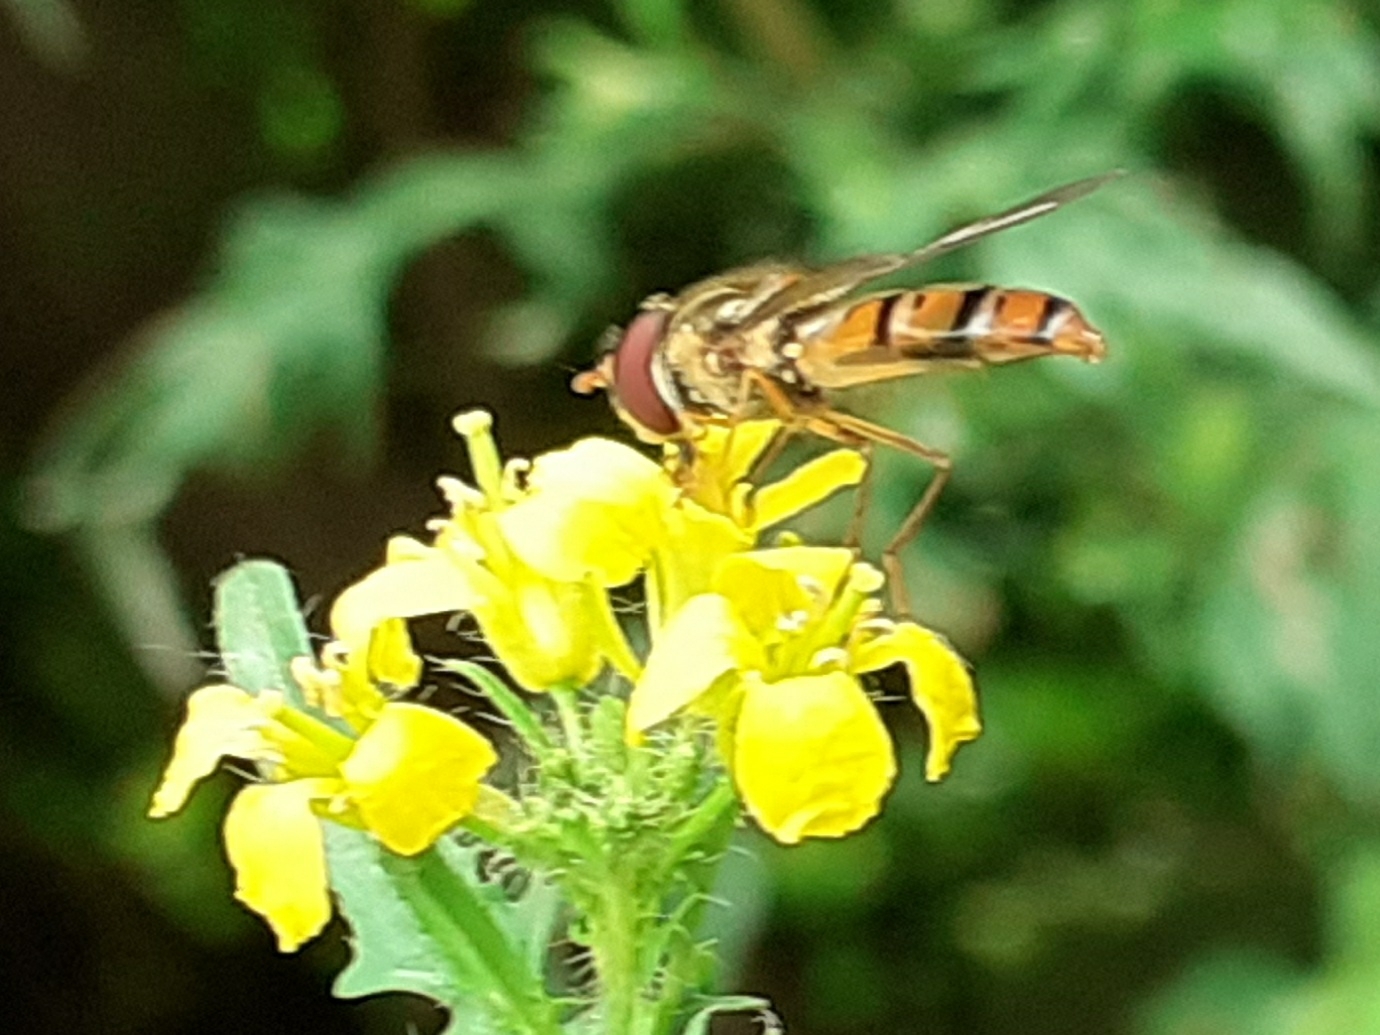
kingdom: Animalia
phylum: Arthropoda
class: Insecta
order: Diptera
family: Syrphidae
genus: Episyrphus
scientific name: Episyrphus balteatus
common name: Marmalade hoverfly
